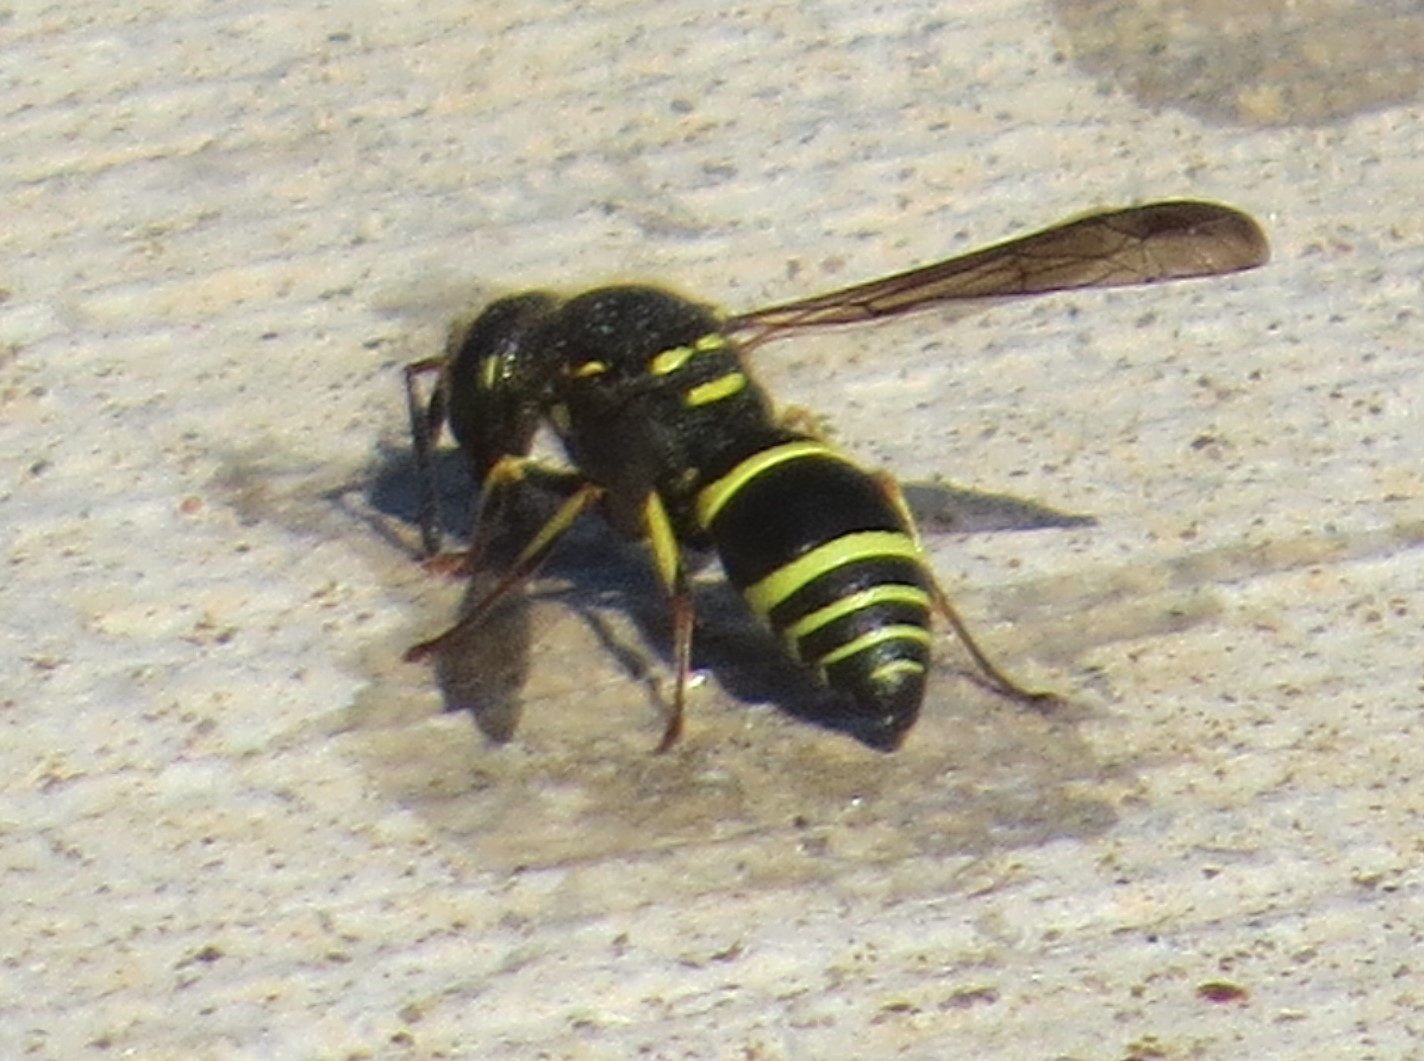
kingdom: Animalia
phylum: Arthropoda
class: Insecta
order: Hymenoptera
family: Vespidae
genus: Ancistrocerus
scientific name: Ancistrocerus
